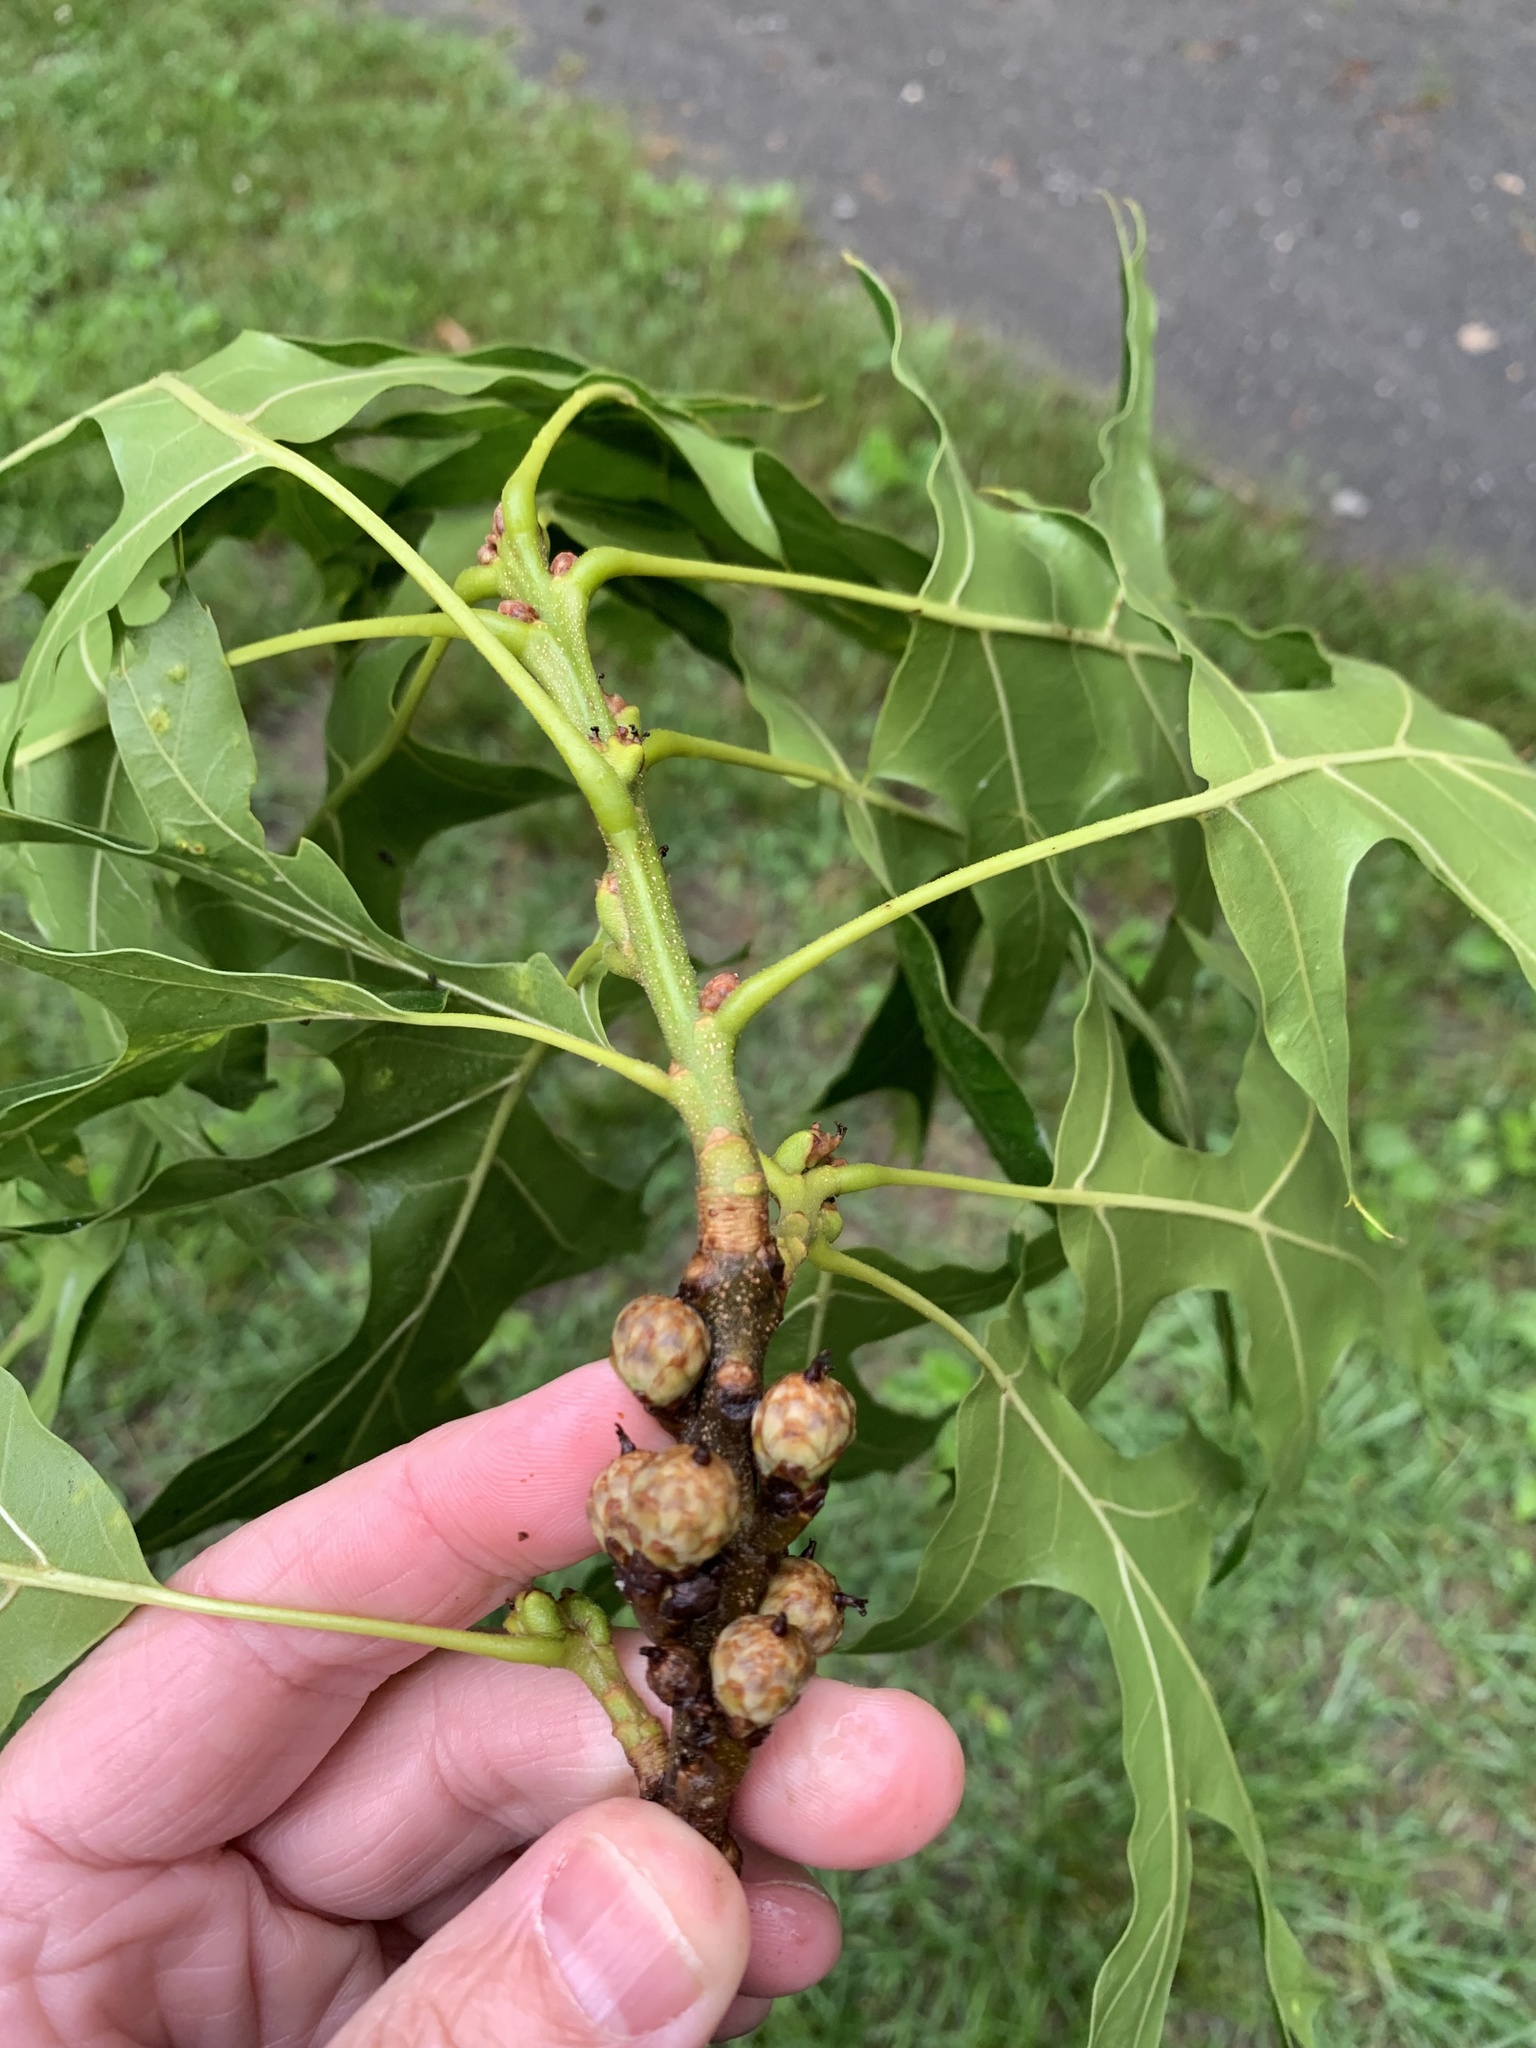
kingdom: Plantae
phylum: Tracheophyta
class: Magnoliopsida
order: Fagales
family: Fagaceae
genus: Quercus
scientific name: Quercus coccinea
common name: Scarlet oak
